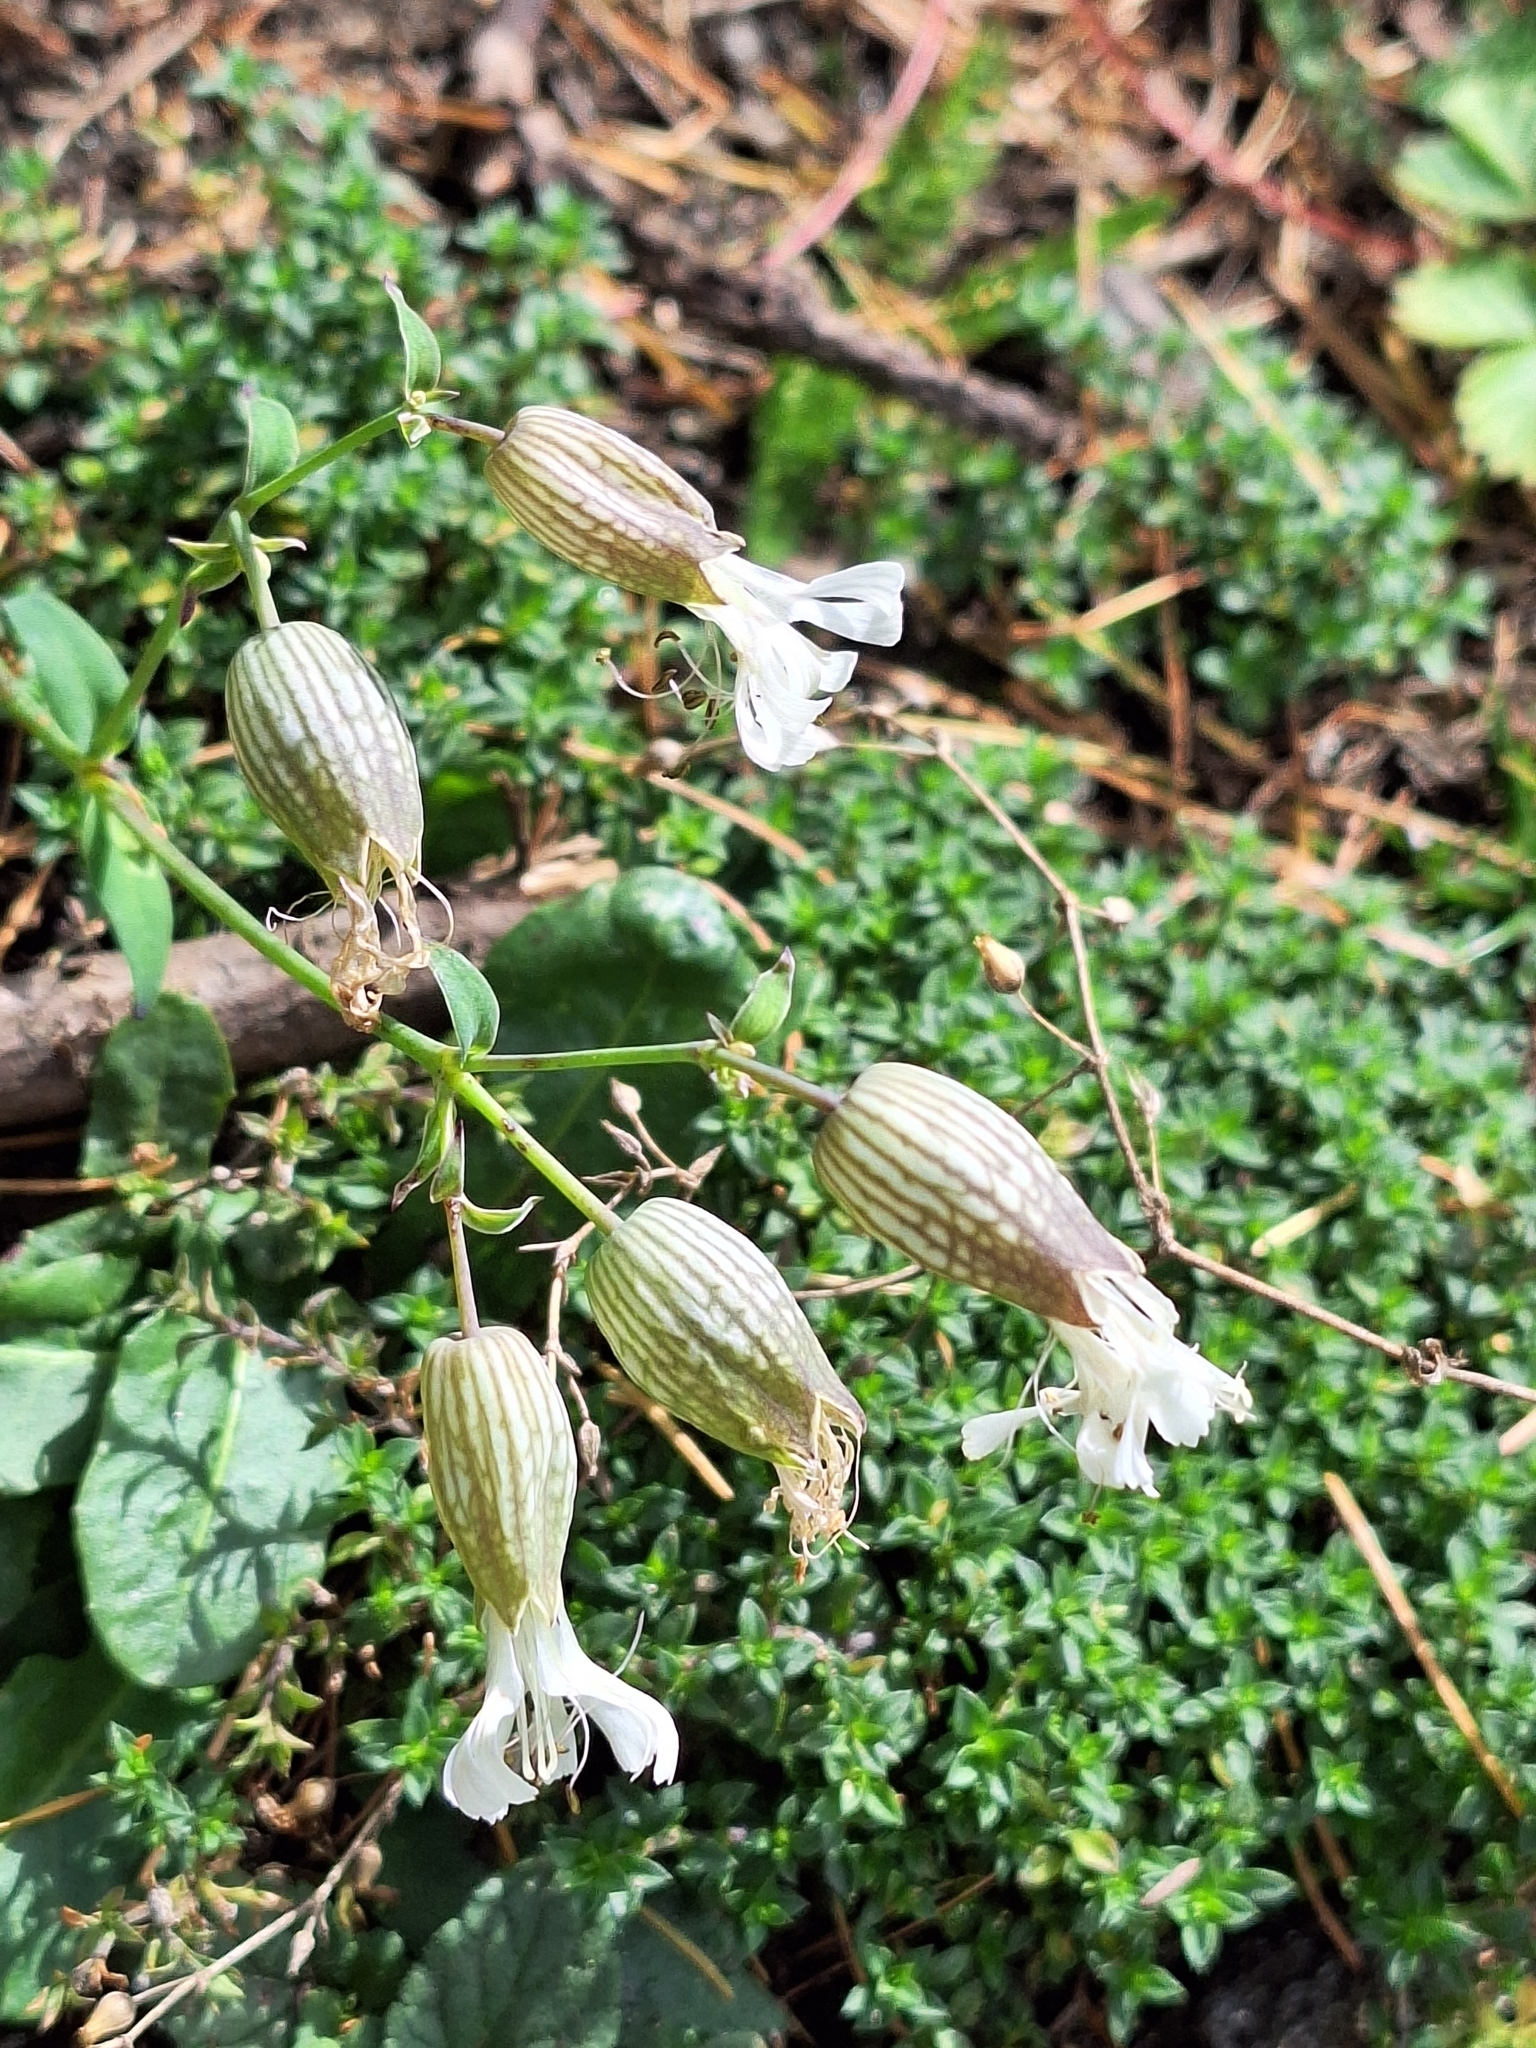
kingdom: Plantae
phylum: Tracheophyta
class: Magnoliopsida
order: Caryophyllales
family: Caryophyllaceae
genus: Silene
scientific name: Silene vulgaris
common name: Bladder campion
